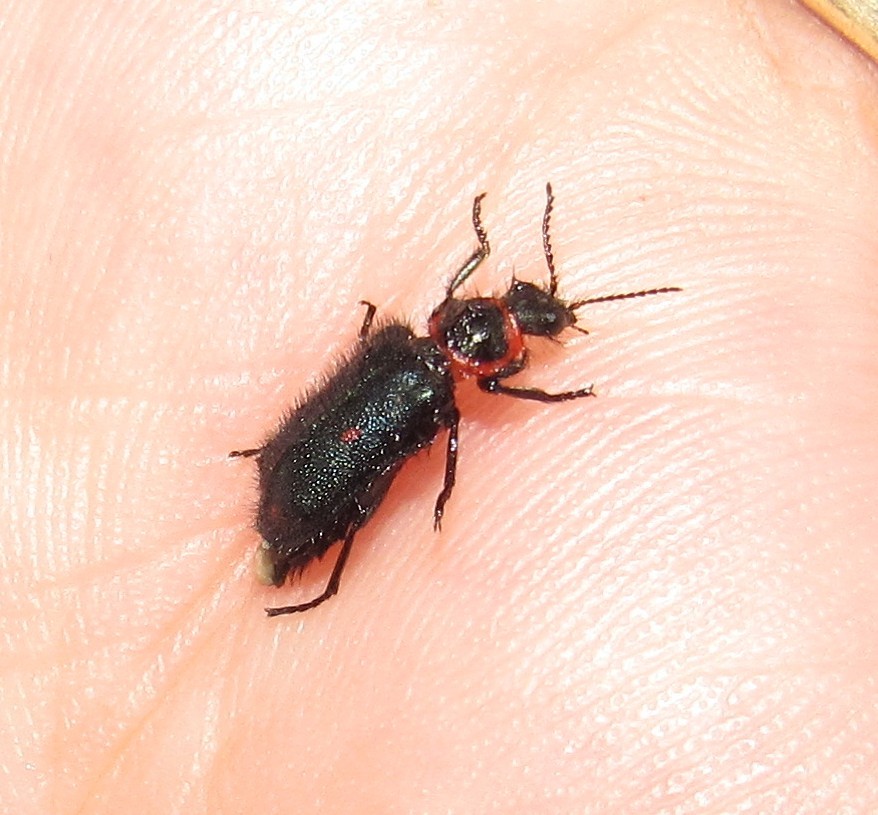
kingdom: Animalia
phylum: Arthropoda
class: Insecta
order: Coleoptera
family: Melyridae
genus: Astylus
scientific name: Astylus
